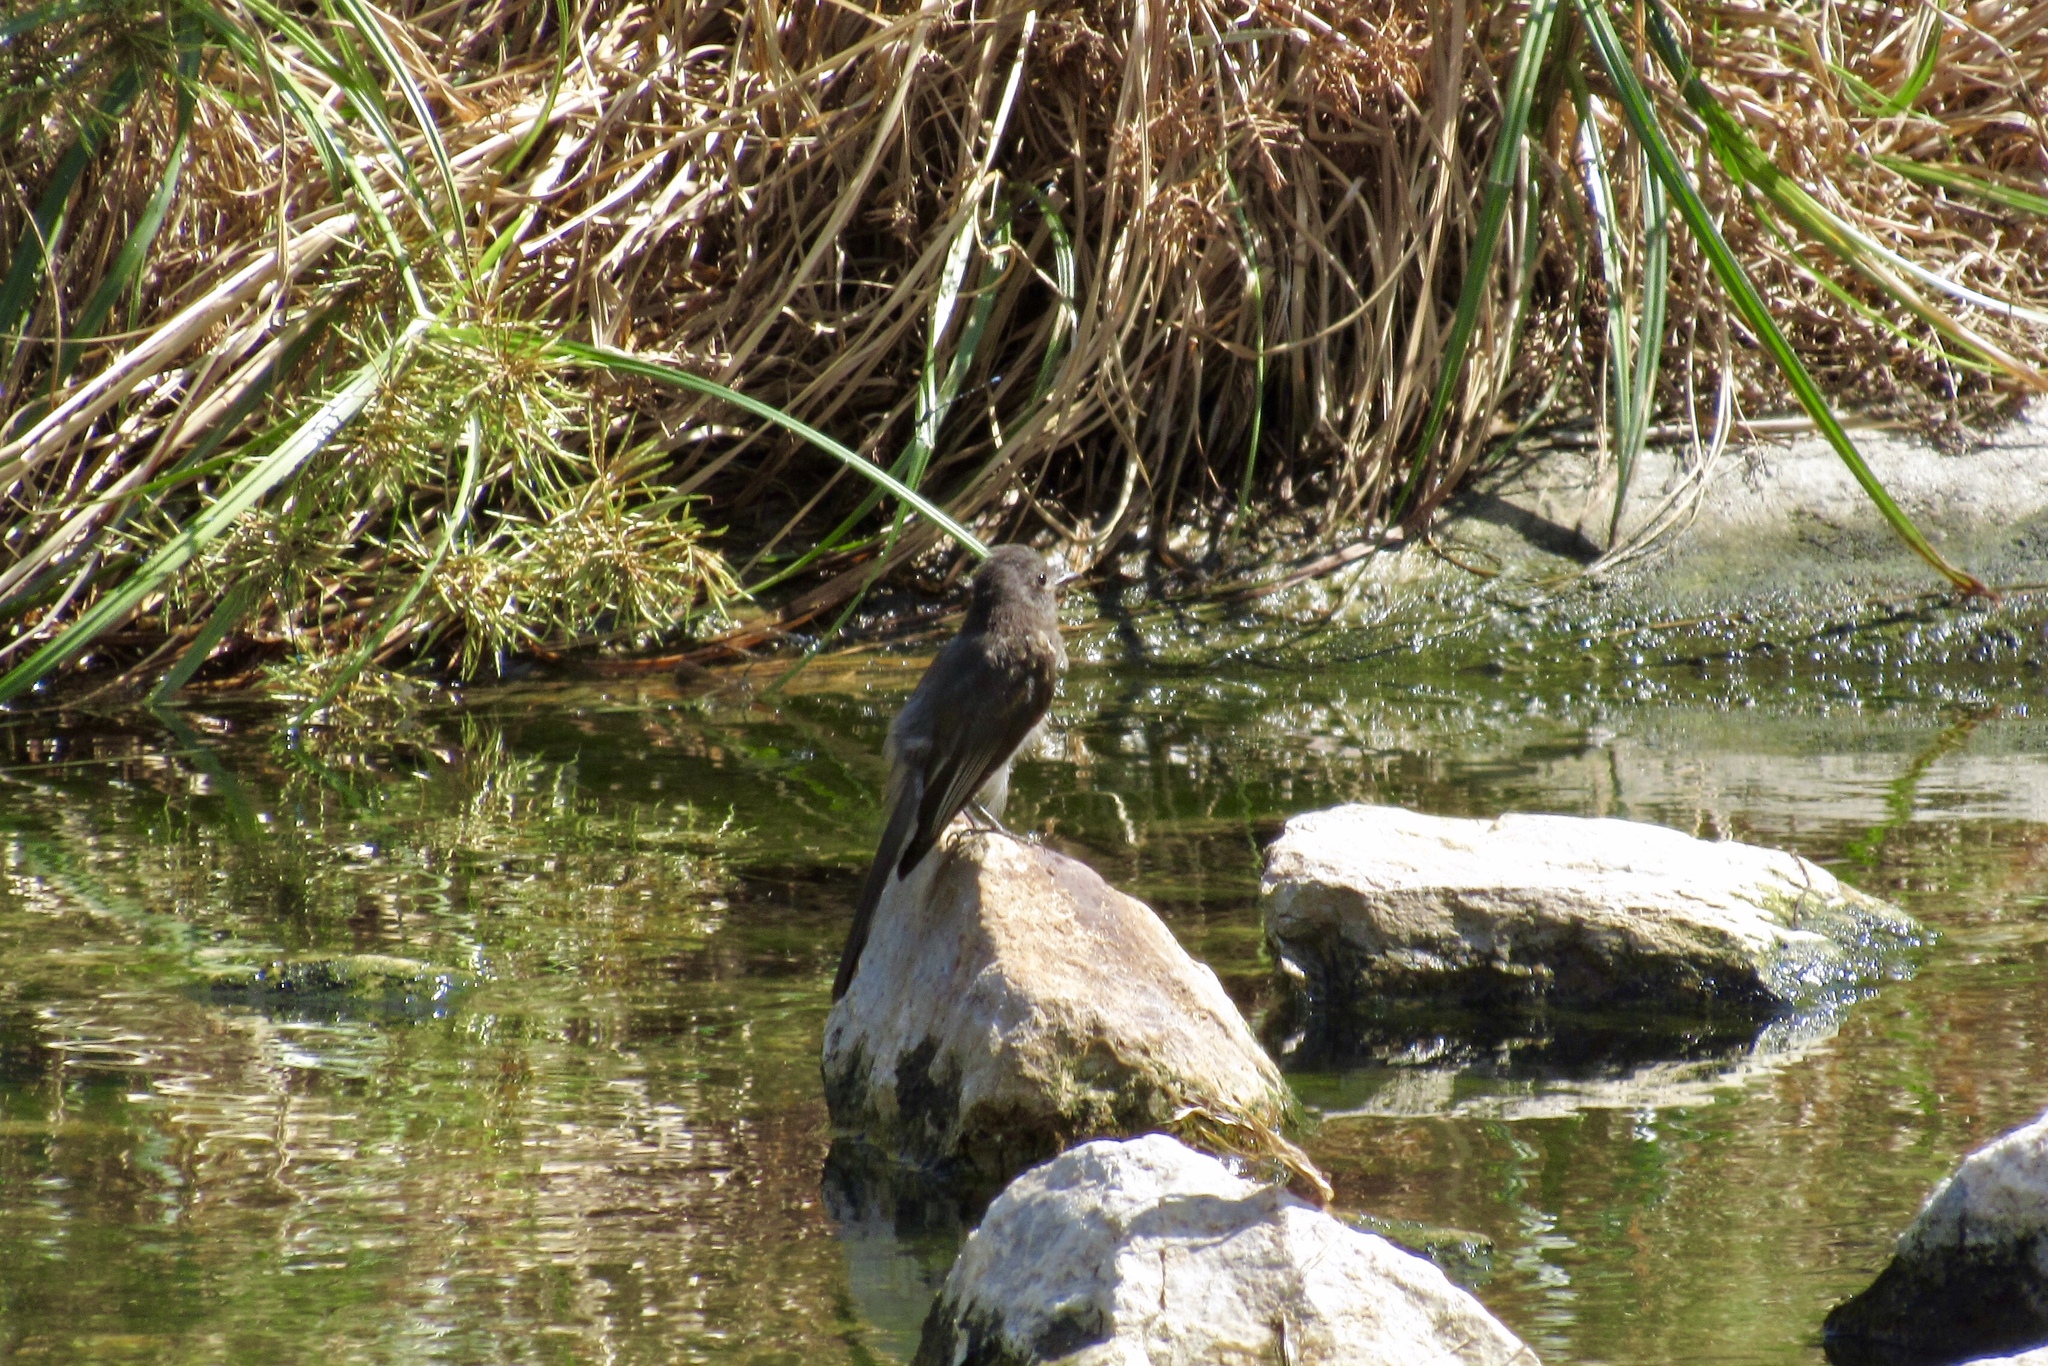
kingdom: Animalia
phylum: Chordata
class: Aves
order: Passeriformes
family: Tyrannidae
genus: Sayornis
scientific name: Sayornis nigricans
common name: Black phoebe
